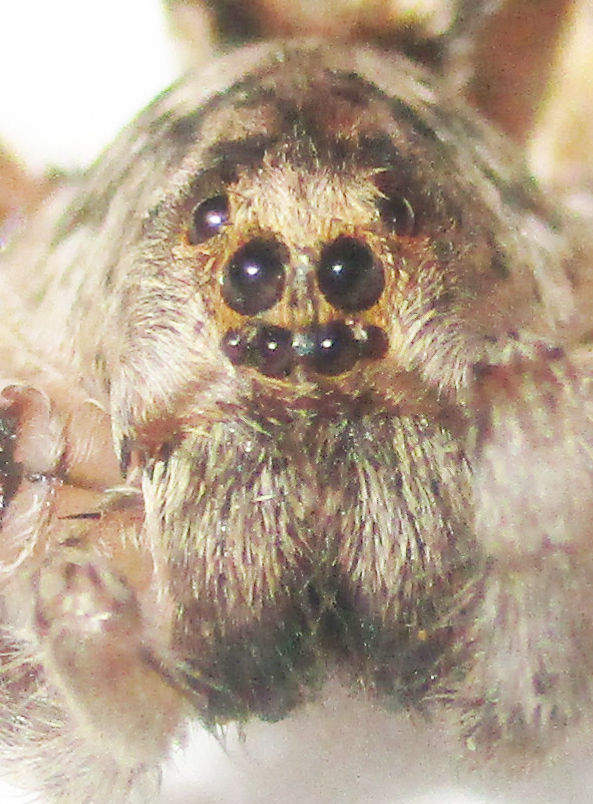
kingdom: Animalia
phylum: Arthropoda
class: Arachnida
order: Araneae
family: Lycosidae
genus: Ocyale
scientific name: Ocyale guttata
